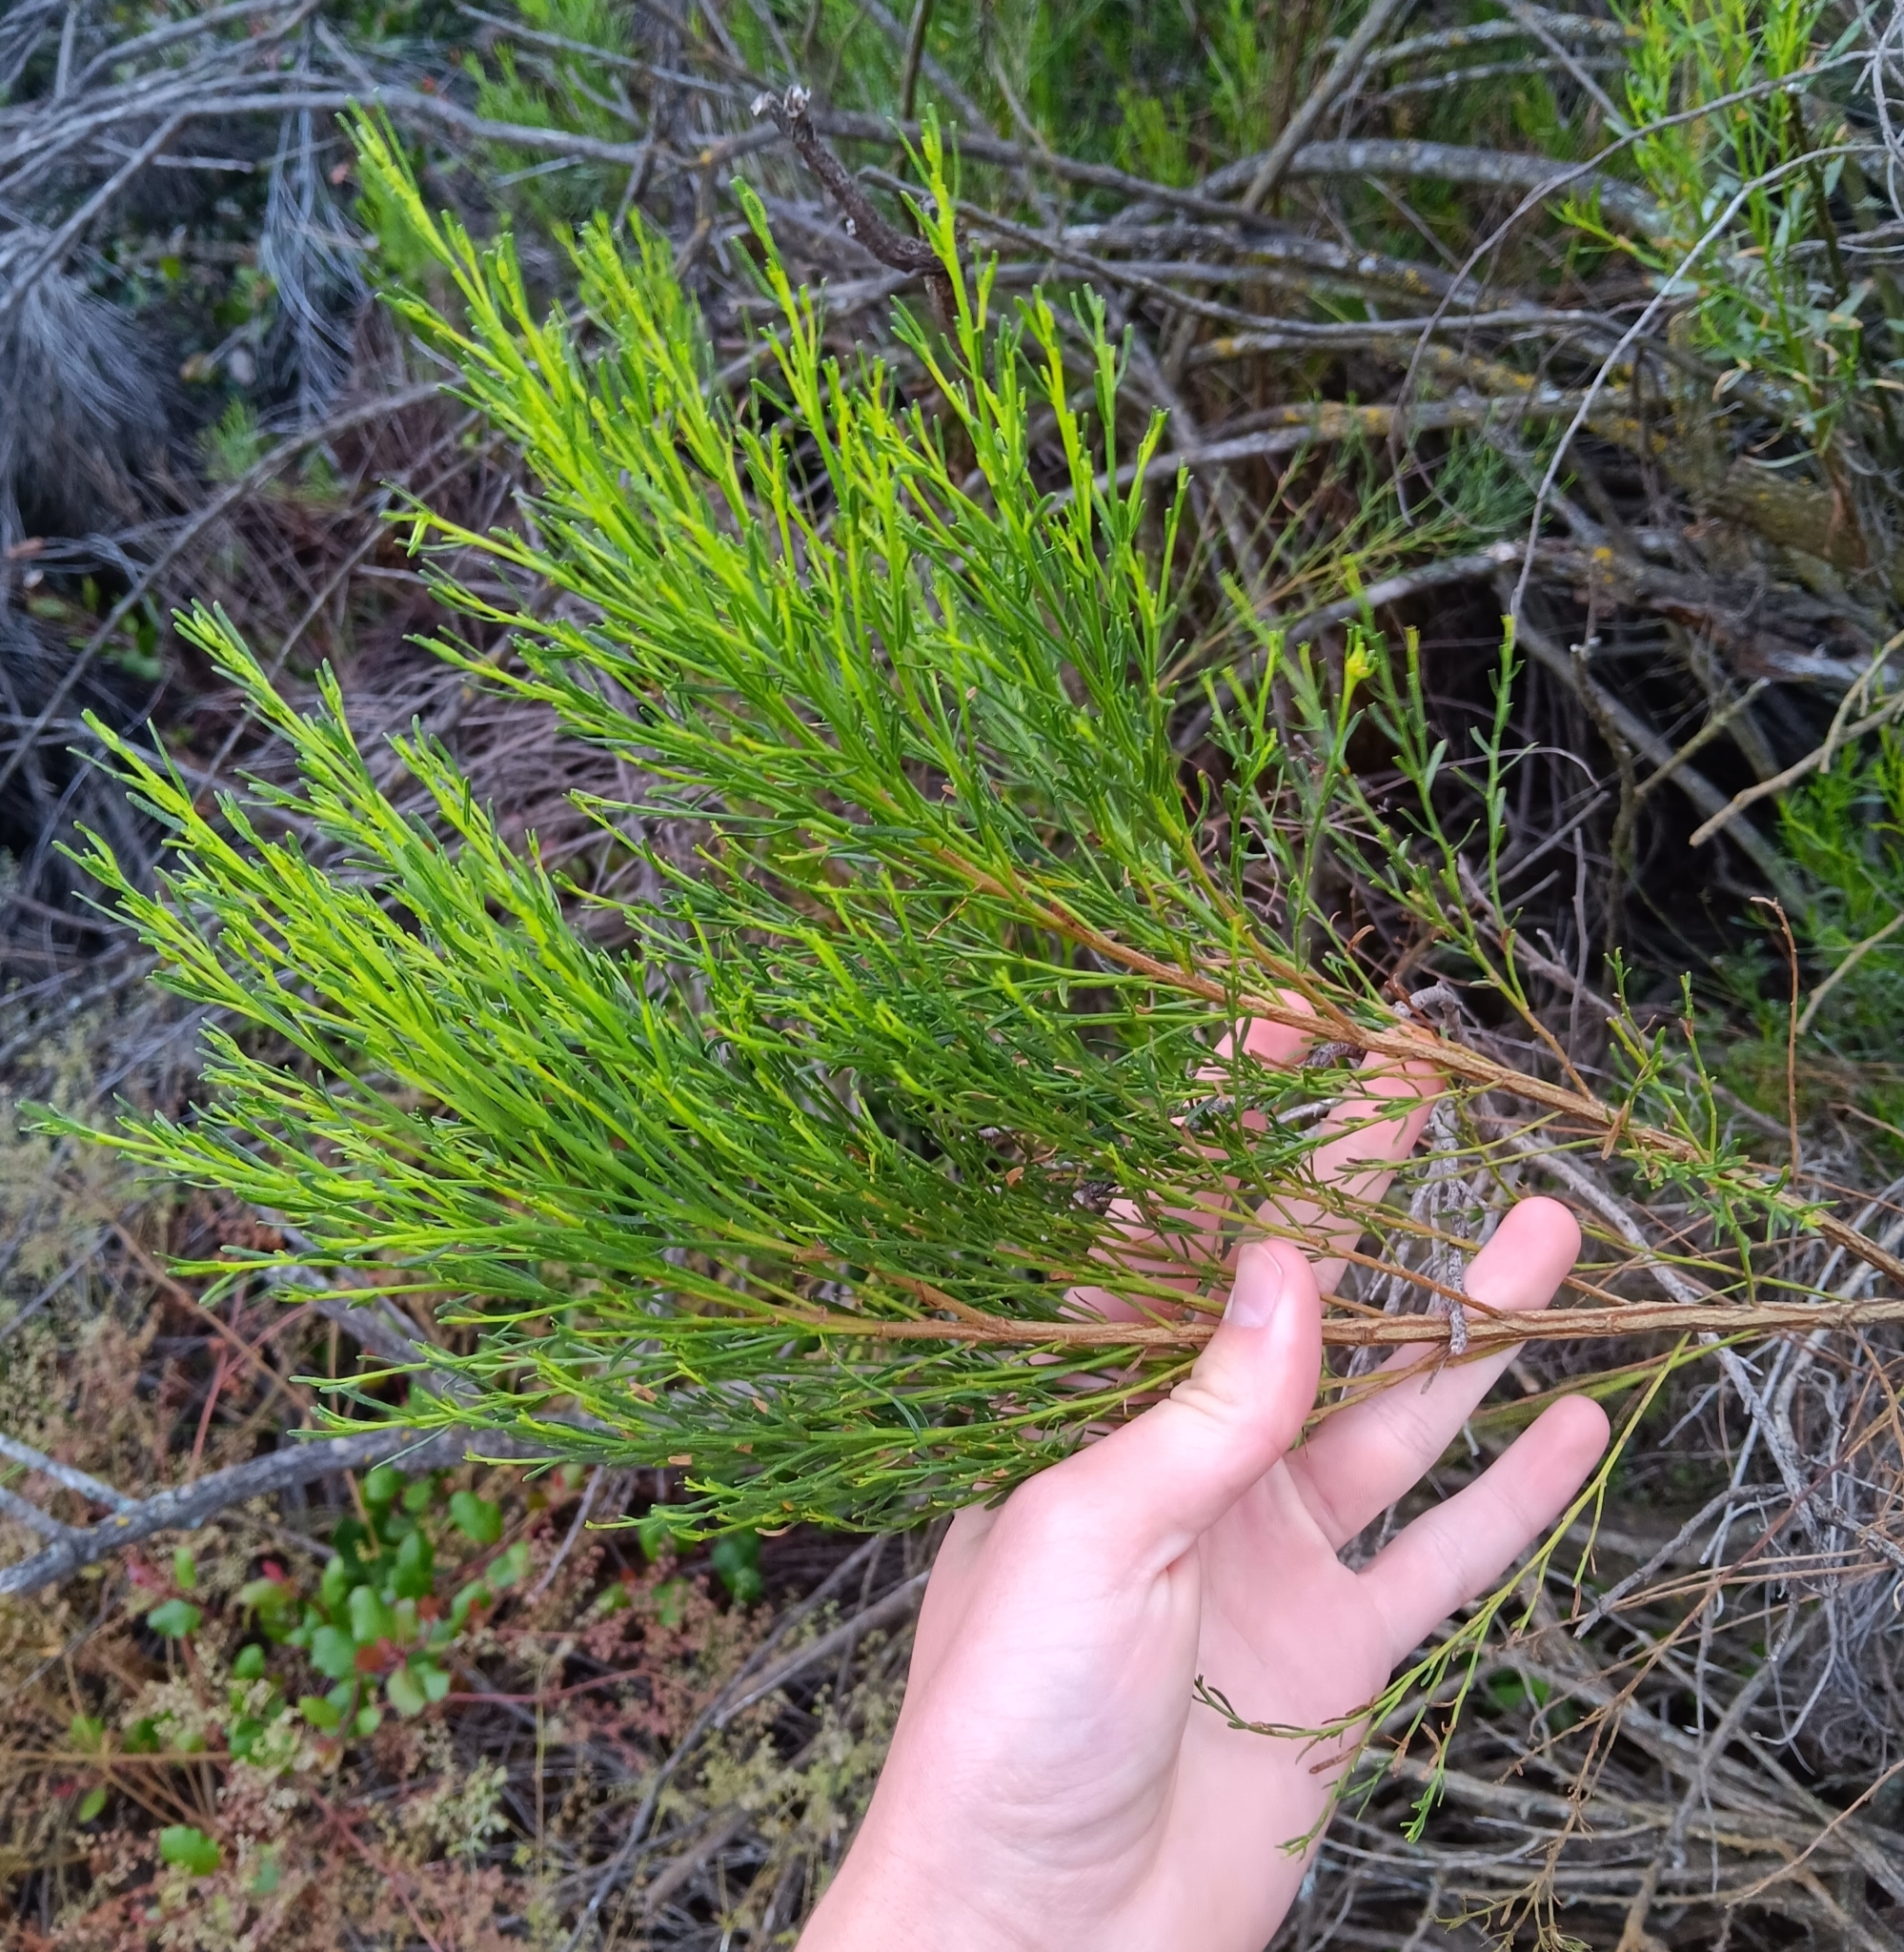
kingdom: Plantae
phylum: Tracheophyta
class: Magnoliopsida
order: Asterales
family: Asteraceae
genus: Baccharis
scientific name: Baccharis sarothroides
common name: Desert-broom
